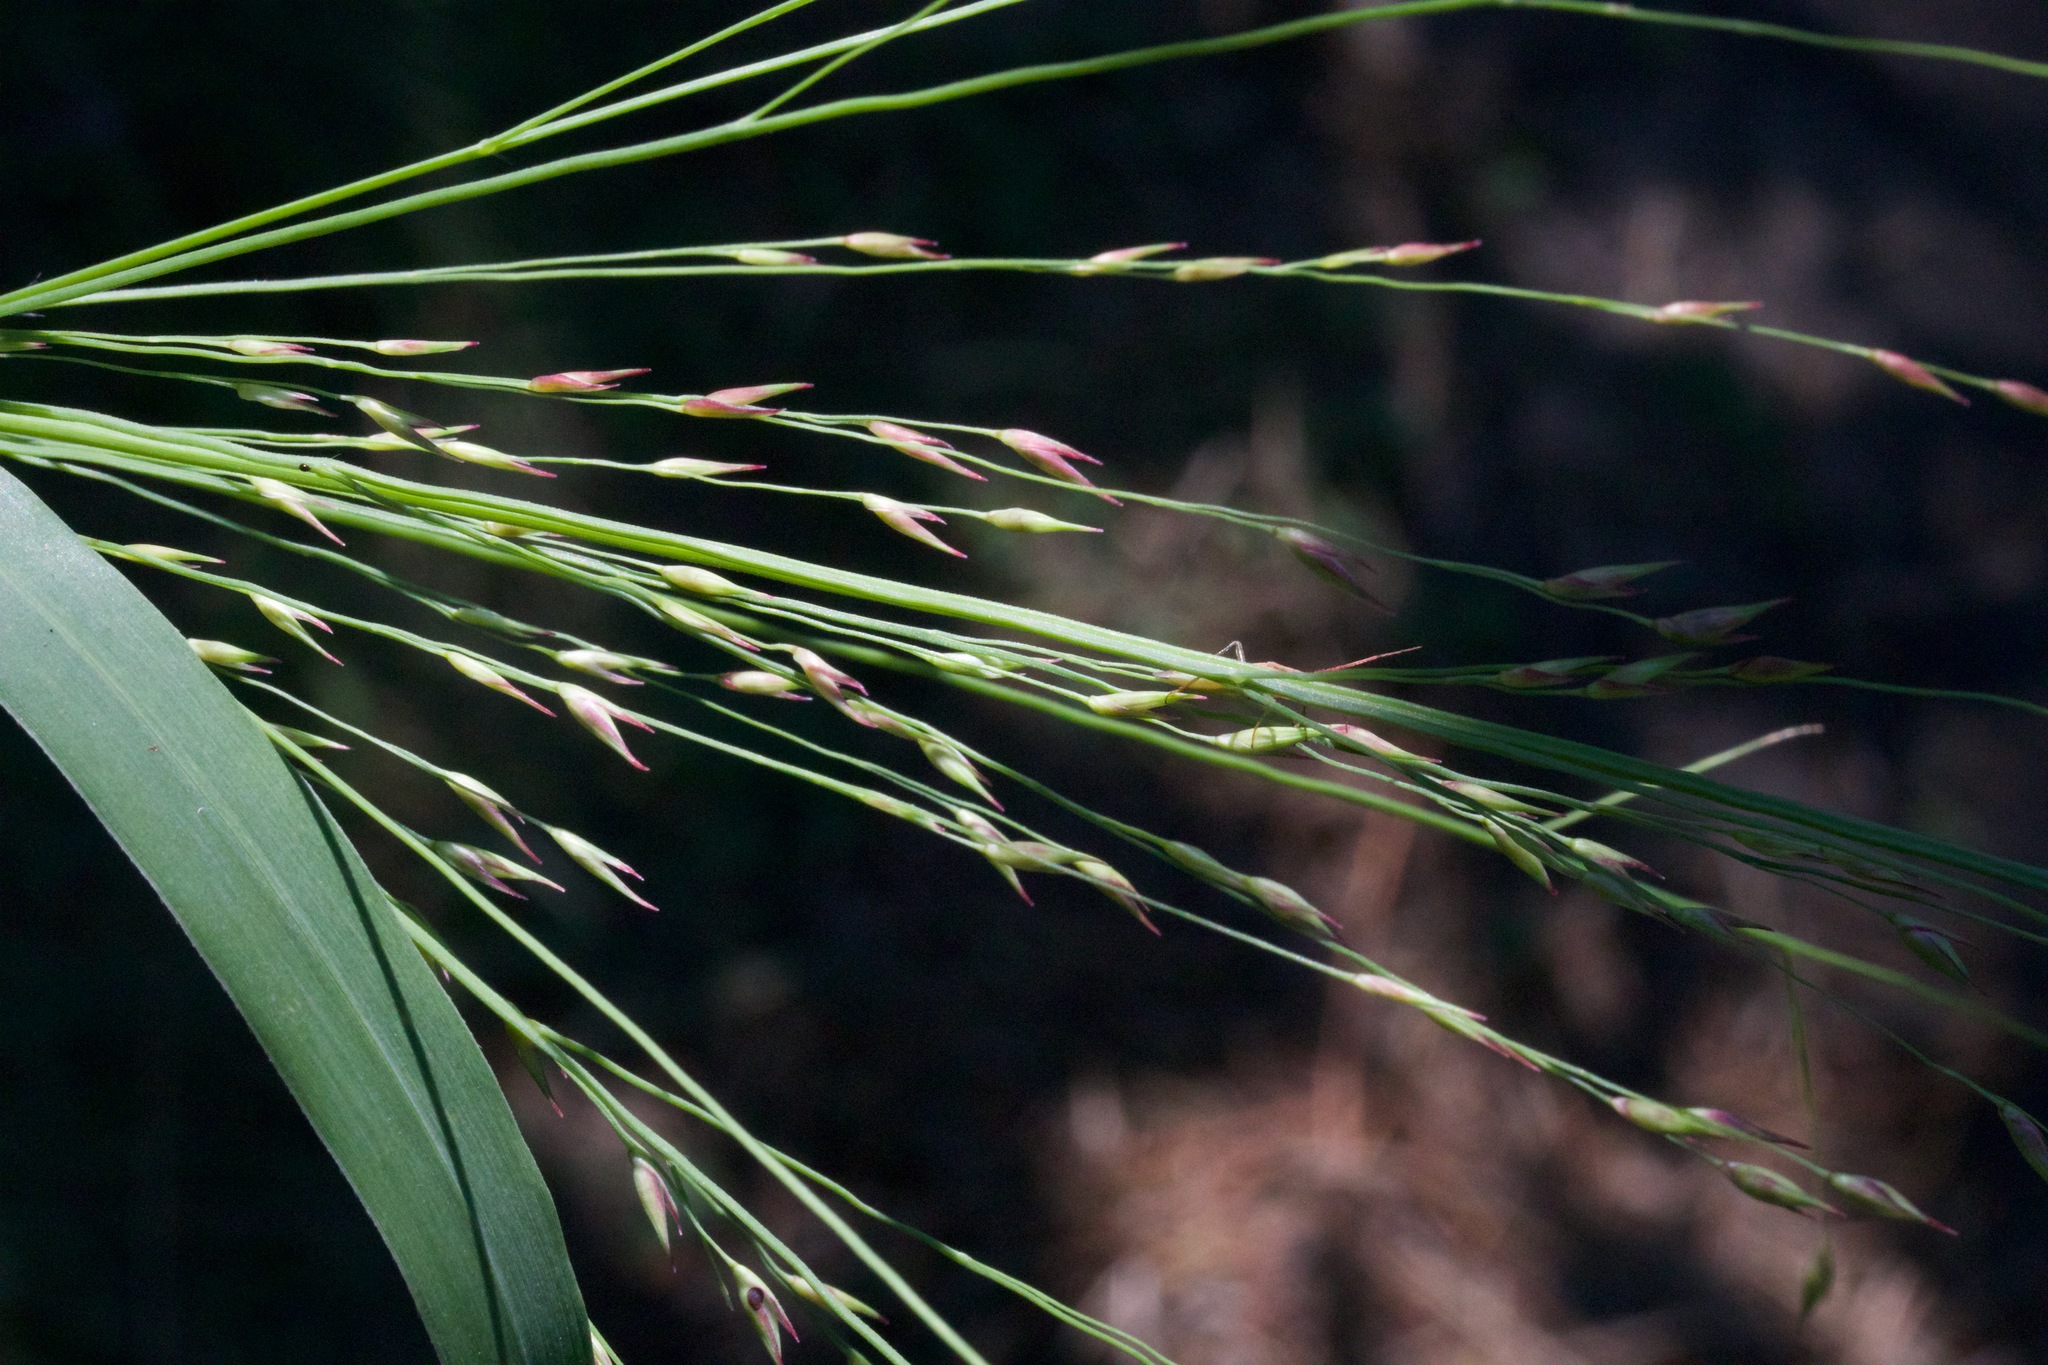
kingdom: Plantae
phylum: Tracheophyta
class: Liliopsida
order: Poales
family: Poaceae
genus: Panicum
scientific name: Panicum virgatum
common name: Switchgrass
